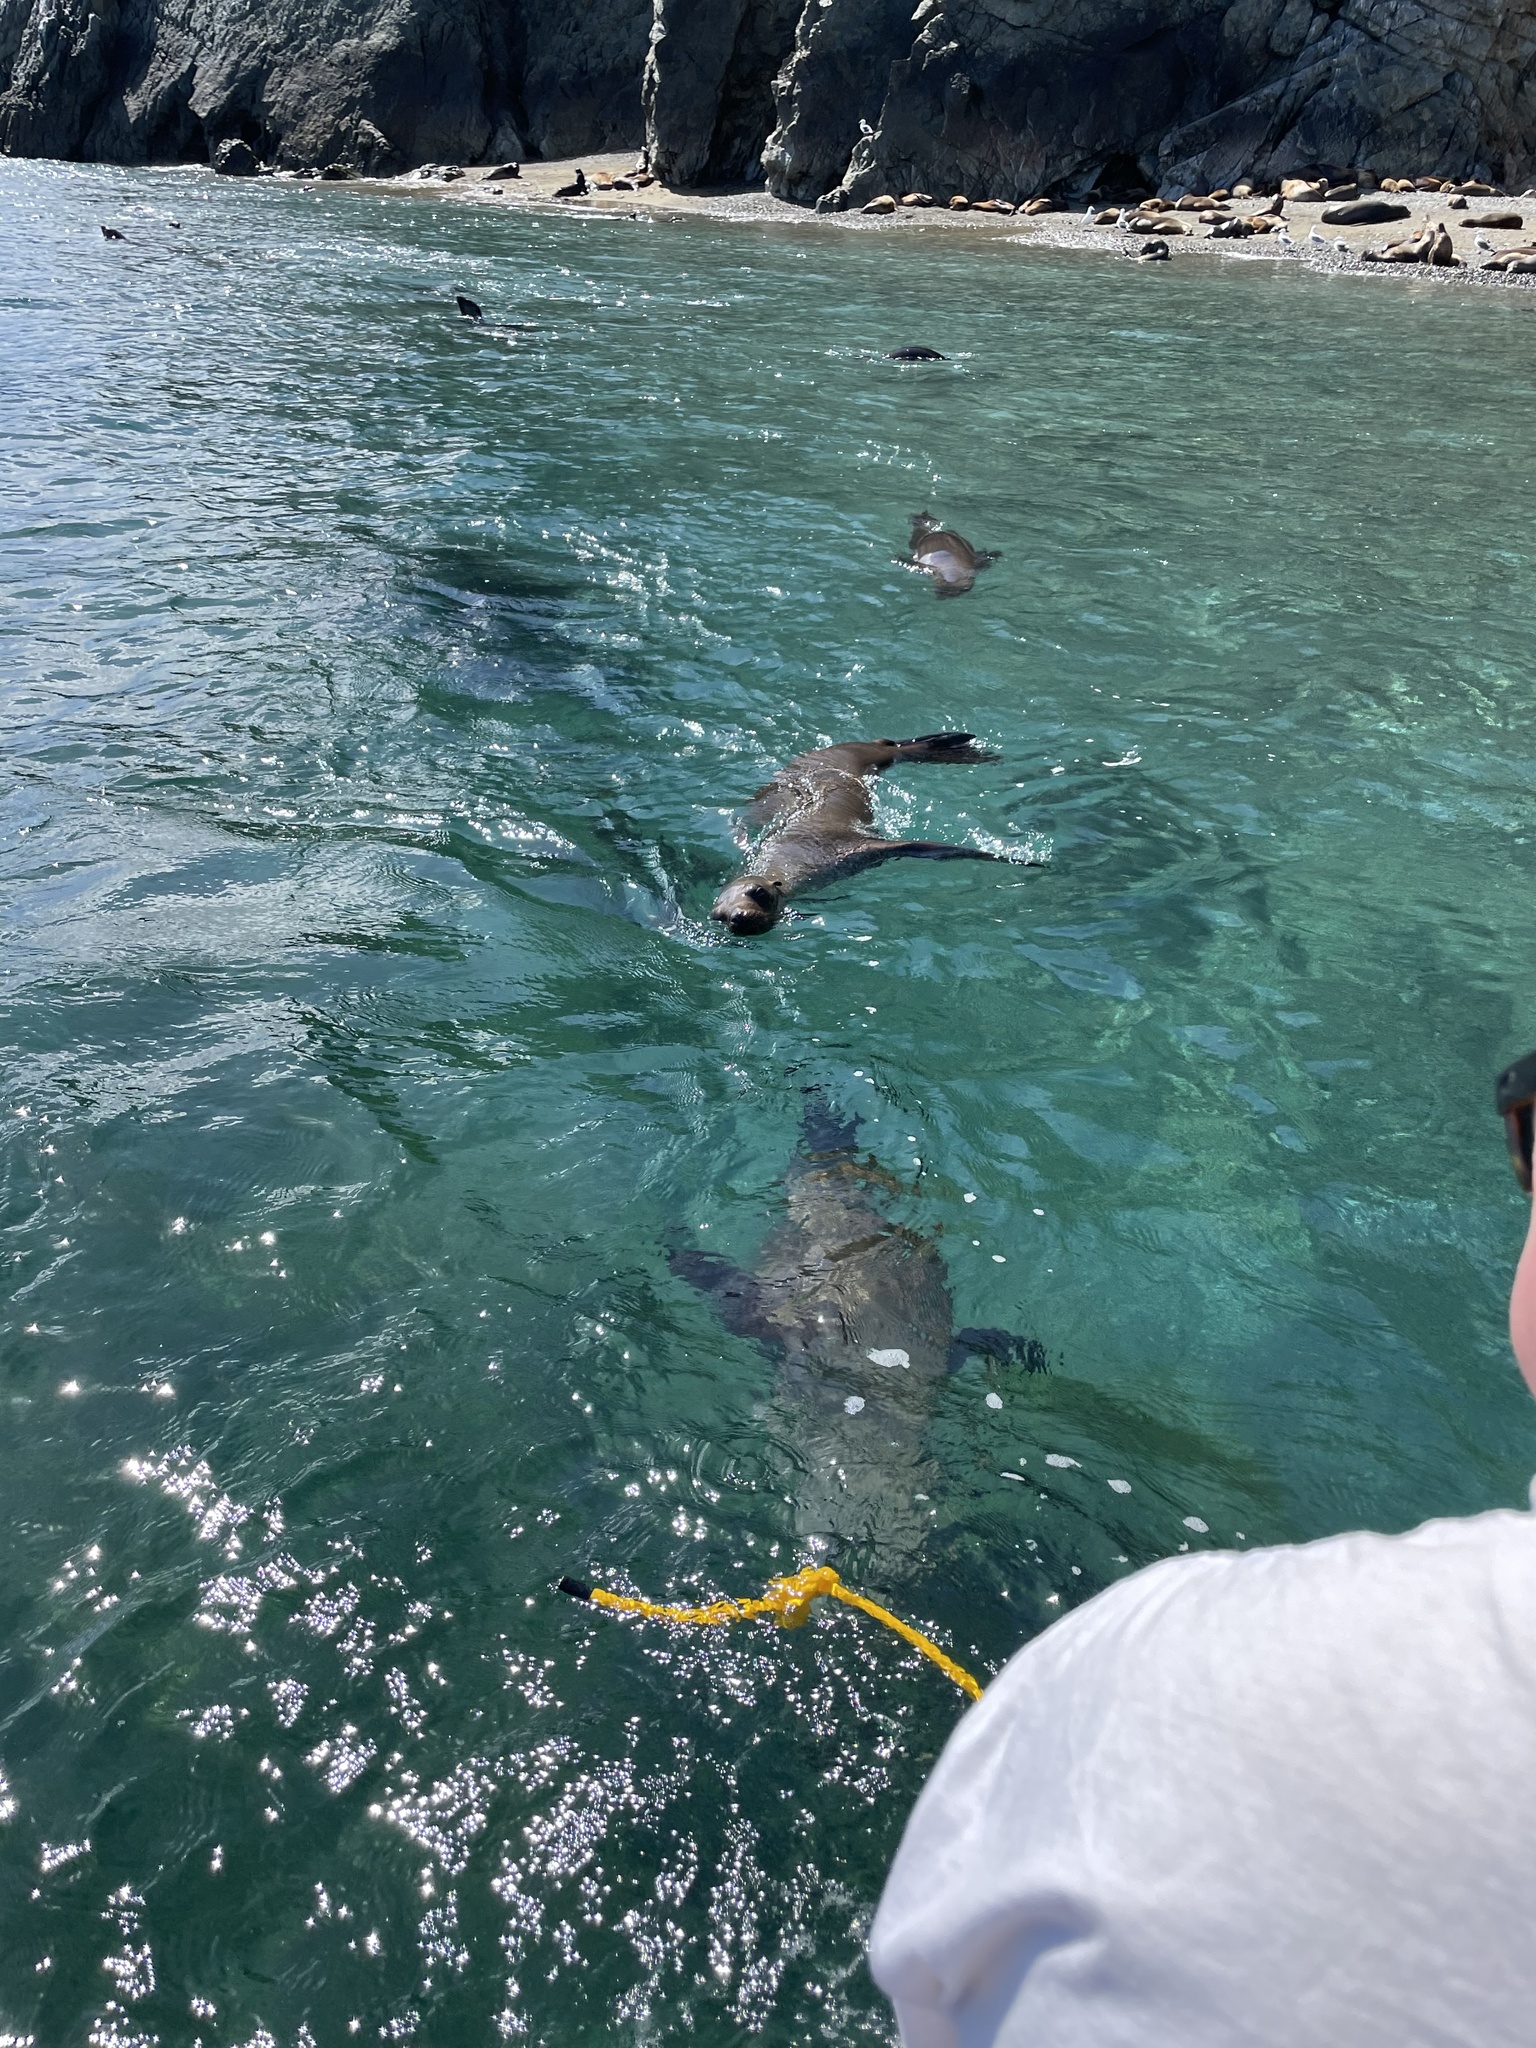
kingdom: Animalia
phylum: Chordata
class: Mammalia
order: Carnivora
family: Otariidae
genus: Zalophus
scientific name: Zalophus californianus
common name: California sea lion
